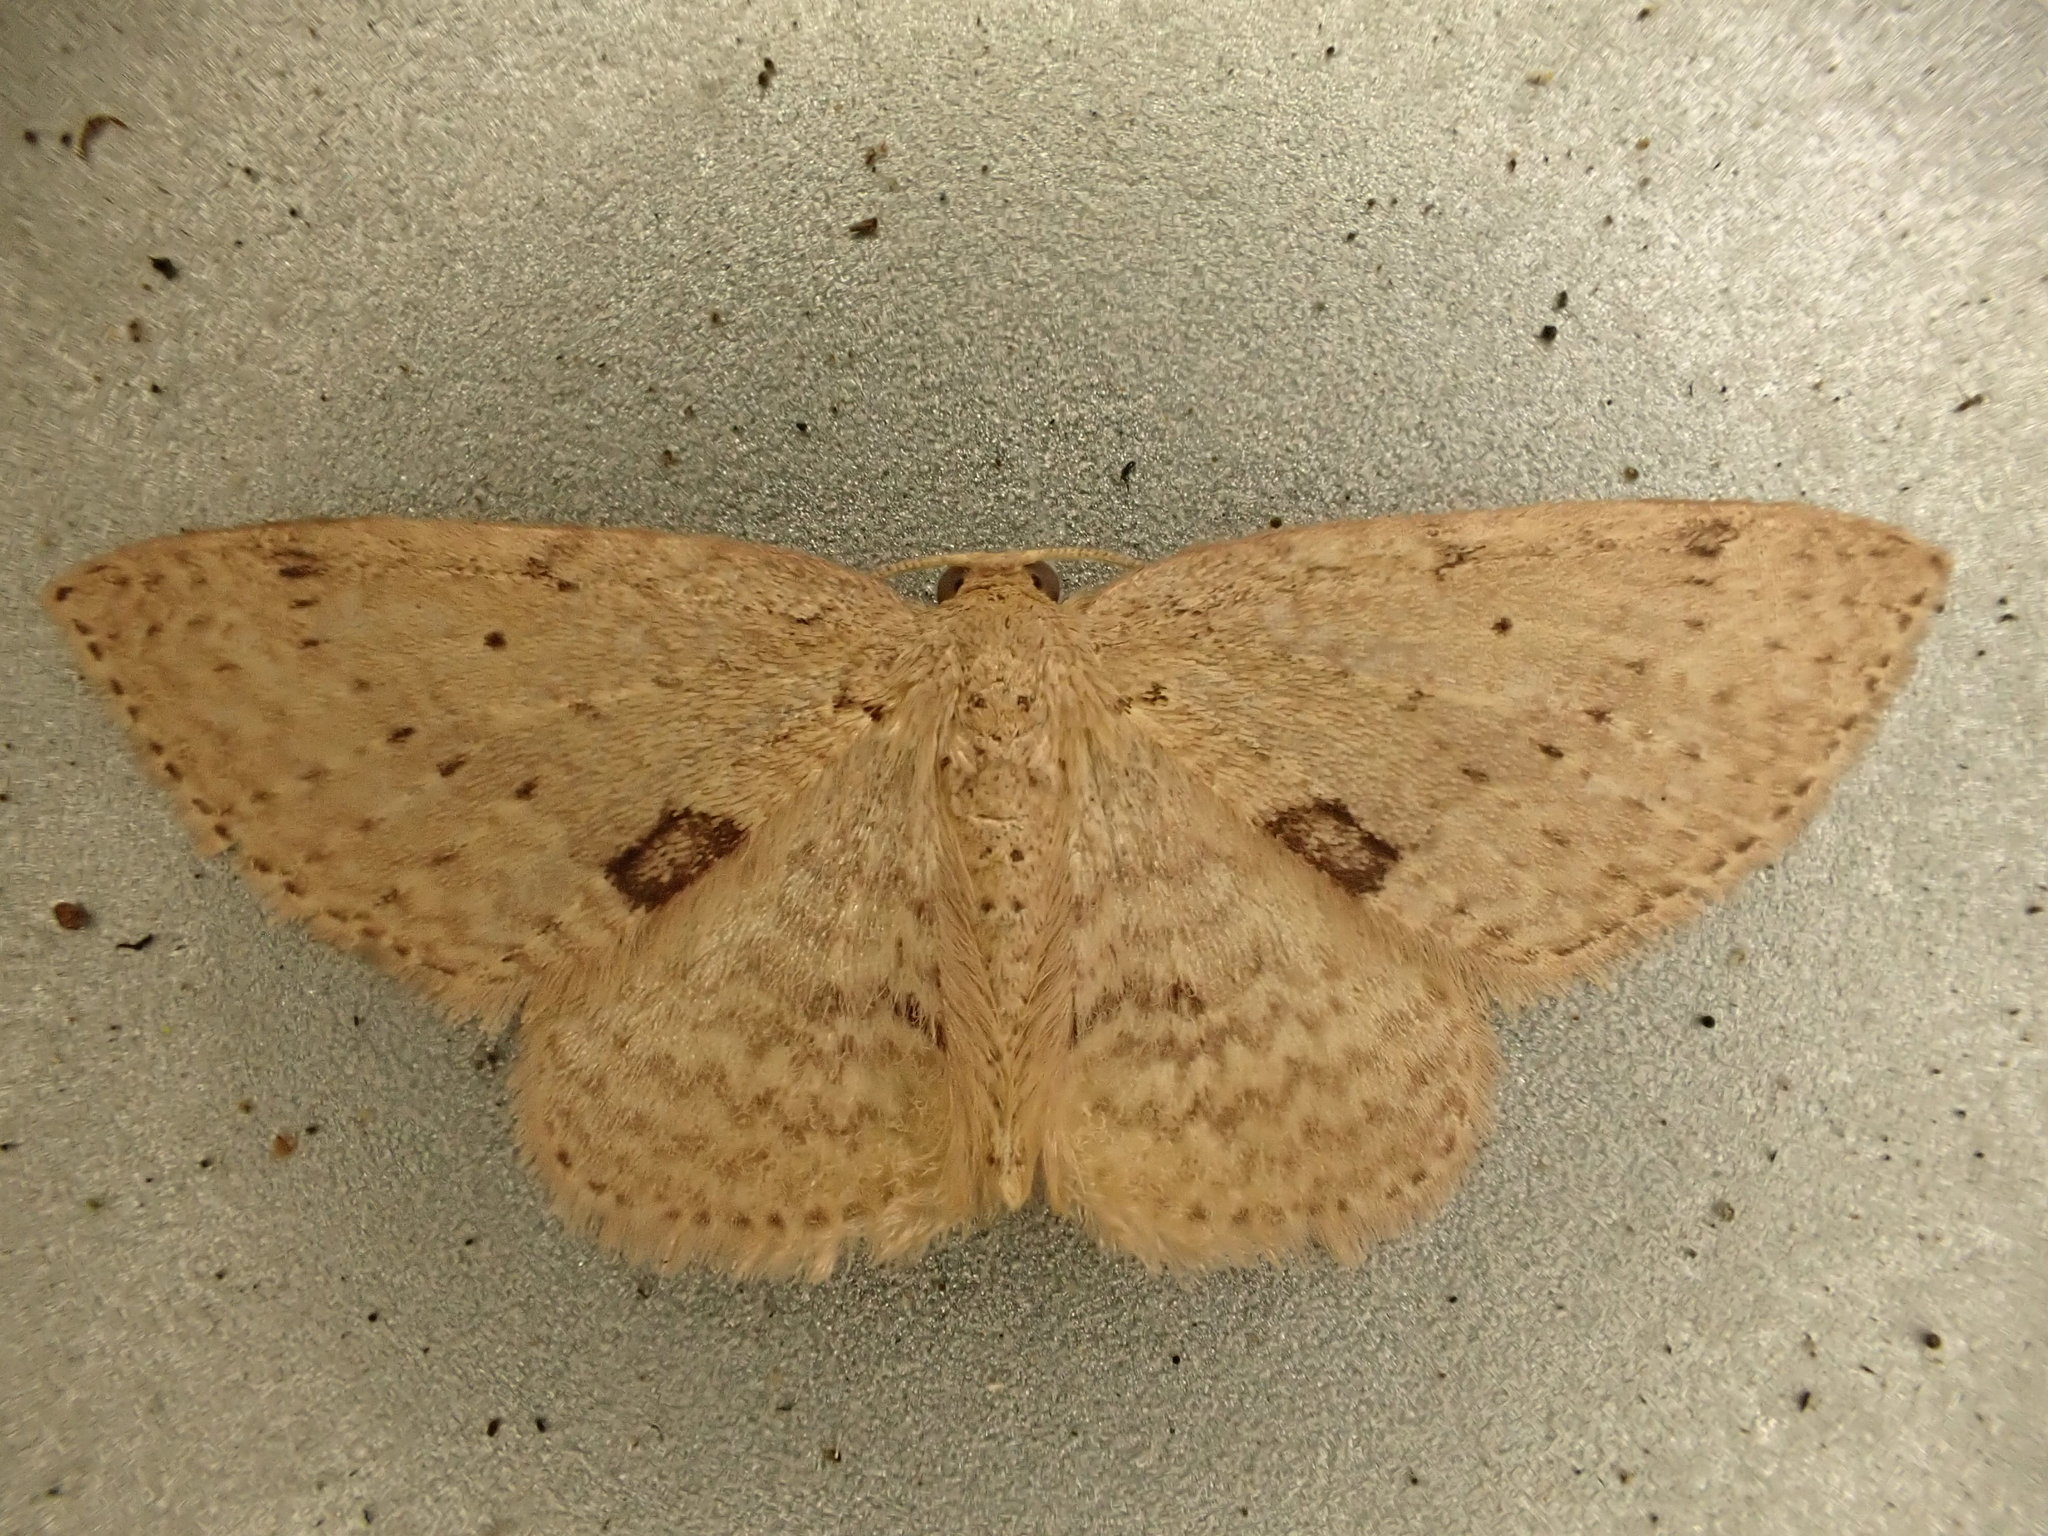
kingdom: Animalia
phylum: Arthropoda
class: Insecta
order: Lepidoptera
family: Geometridae
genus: Poecilasthena
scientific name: Poecilasthena schistaria
